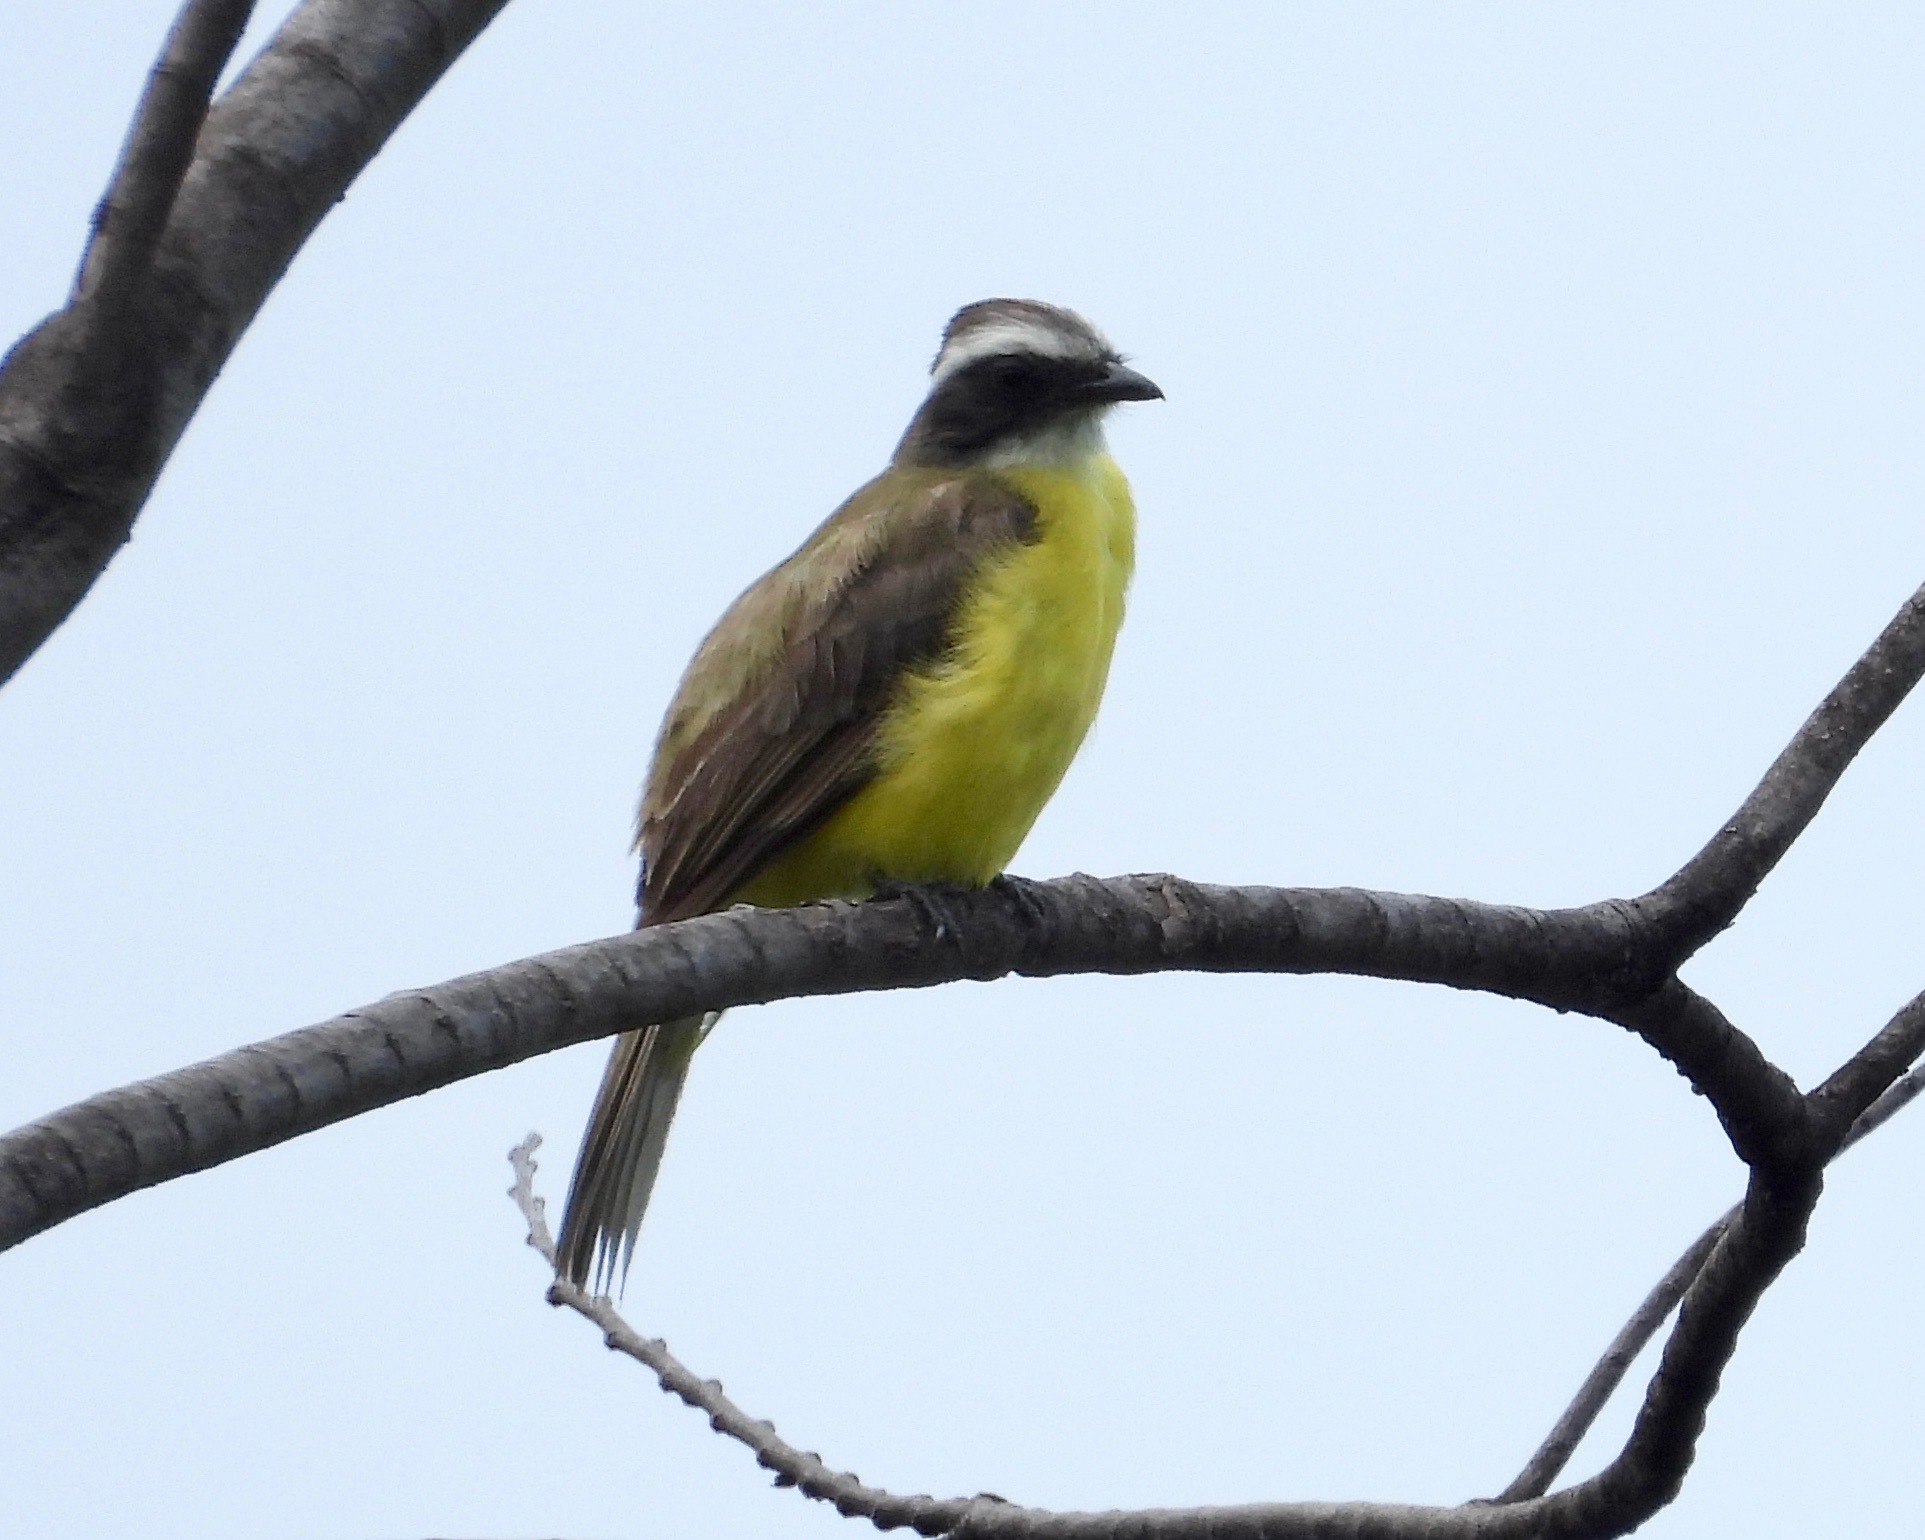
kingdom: Animalia
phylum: Chordata
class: Aves
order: Passeriformes
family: Tyrannidae
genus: Myiozetetes
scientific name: Myiozetetes similis
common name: Social flycatcher
